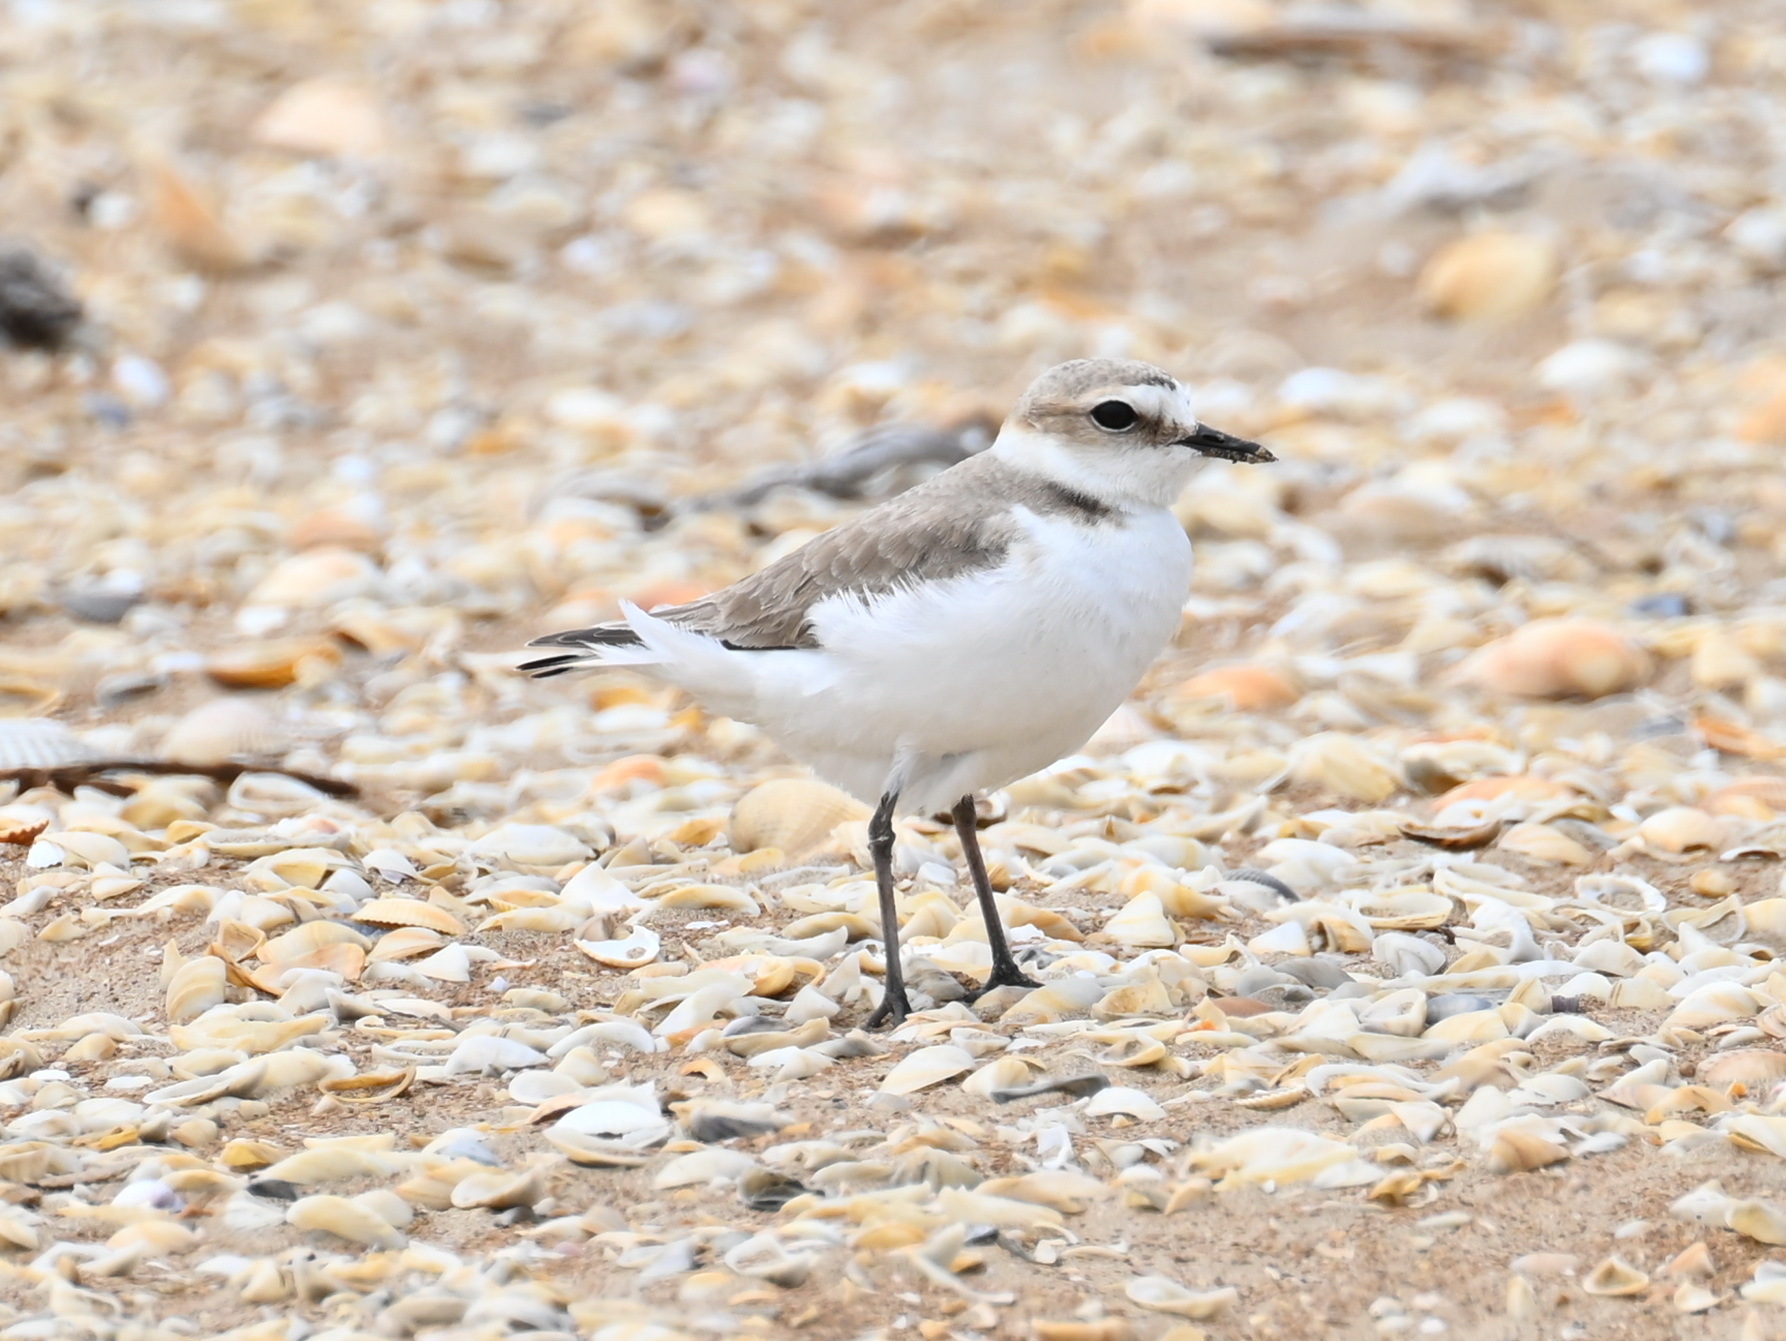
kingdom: Animalia
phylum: Chordata
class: Aves
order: Charadriiformes
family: Charadriidae
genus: Charadrius
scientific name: Charadrius alexandrinus
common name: Kentish plover
